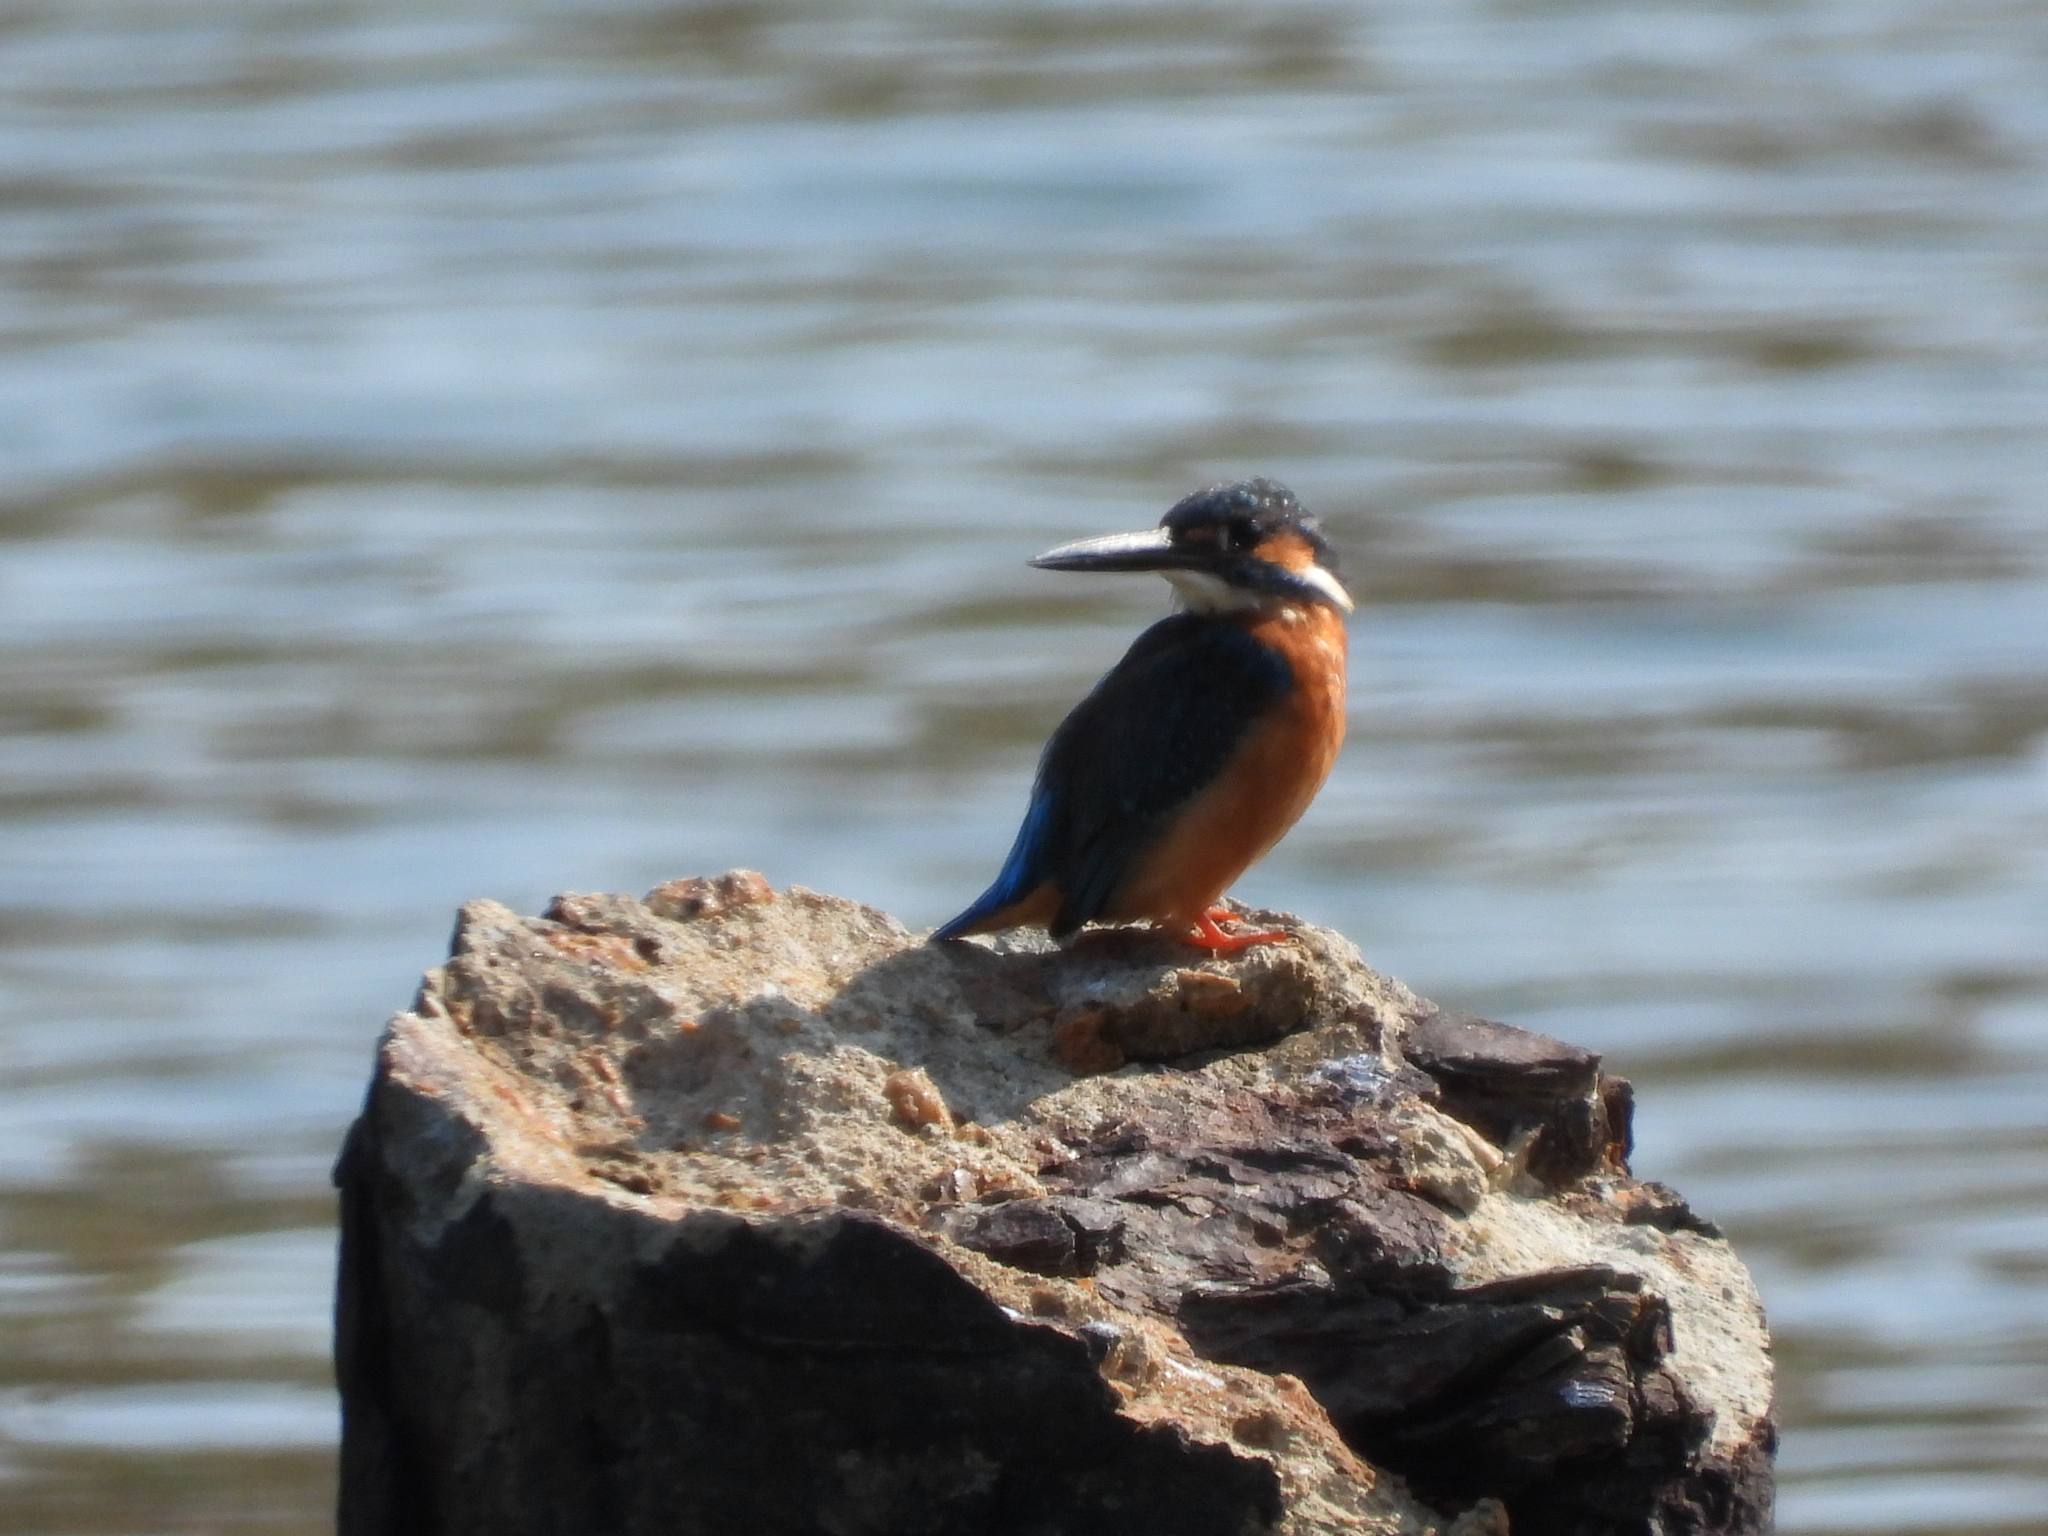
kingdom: Animalia
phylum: Chordata
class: Aves
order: Coraciiformes
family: Alcedinidae
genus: Alcedo
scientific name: Alcedo atthis
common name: Common kingfisher
